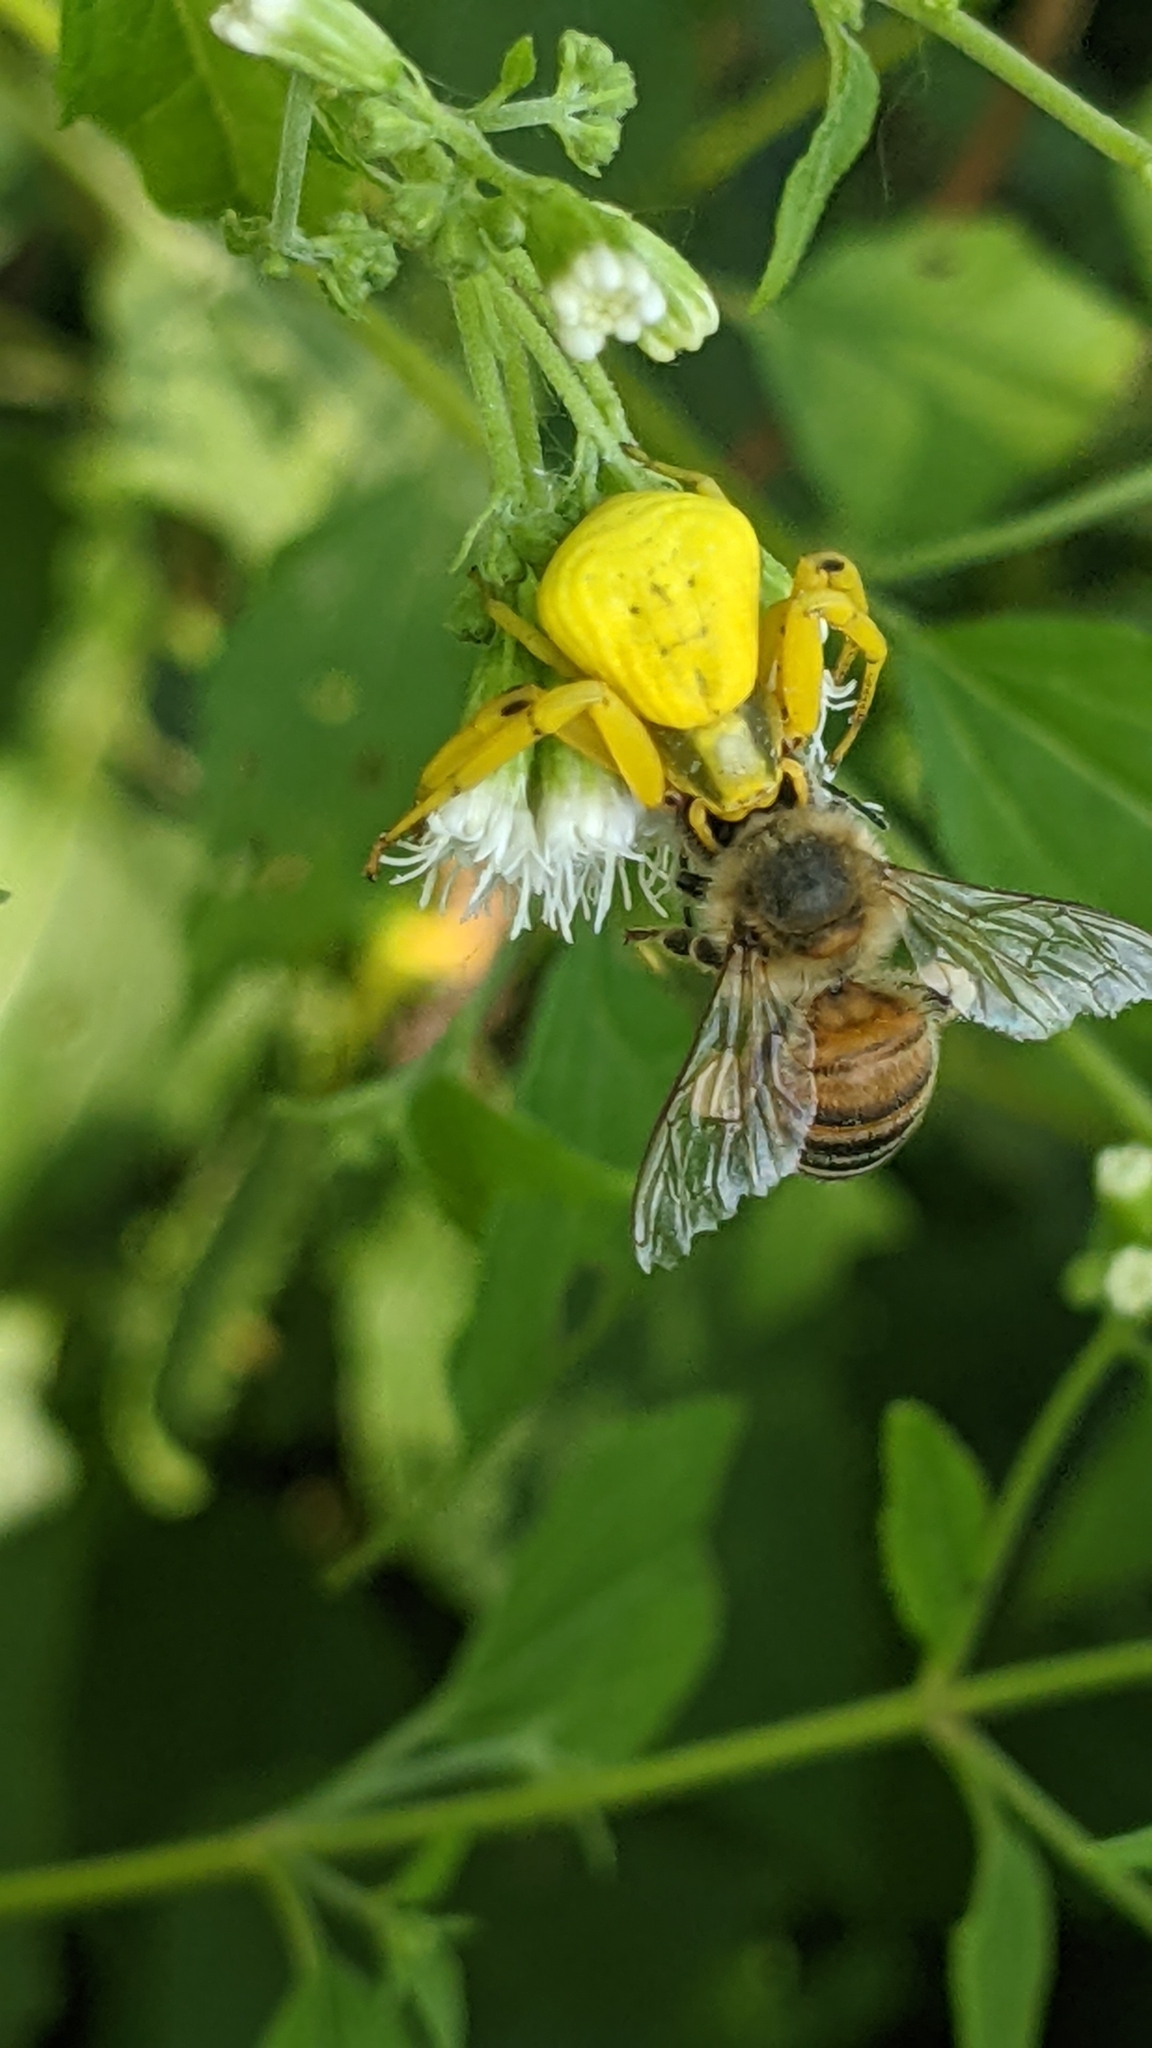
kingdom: Animalia
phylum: Arthropoda
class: Arachnida
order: Araneae
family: Thomisidae
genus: Misumenoides
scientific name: Misumenoides formosipes
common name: White-banded crab spider
